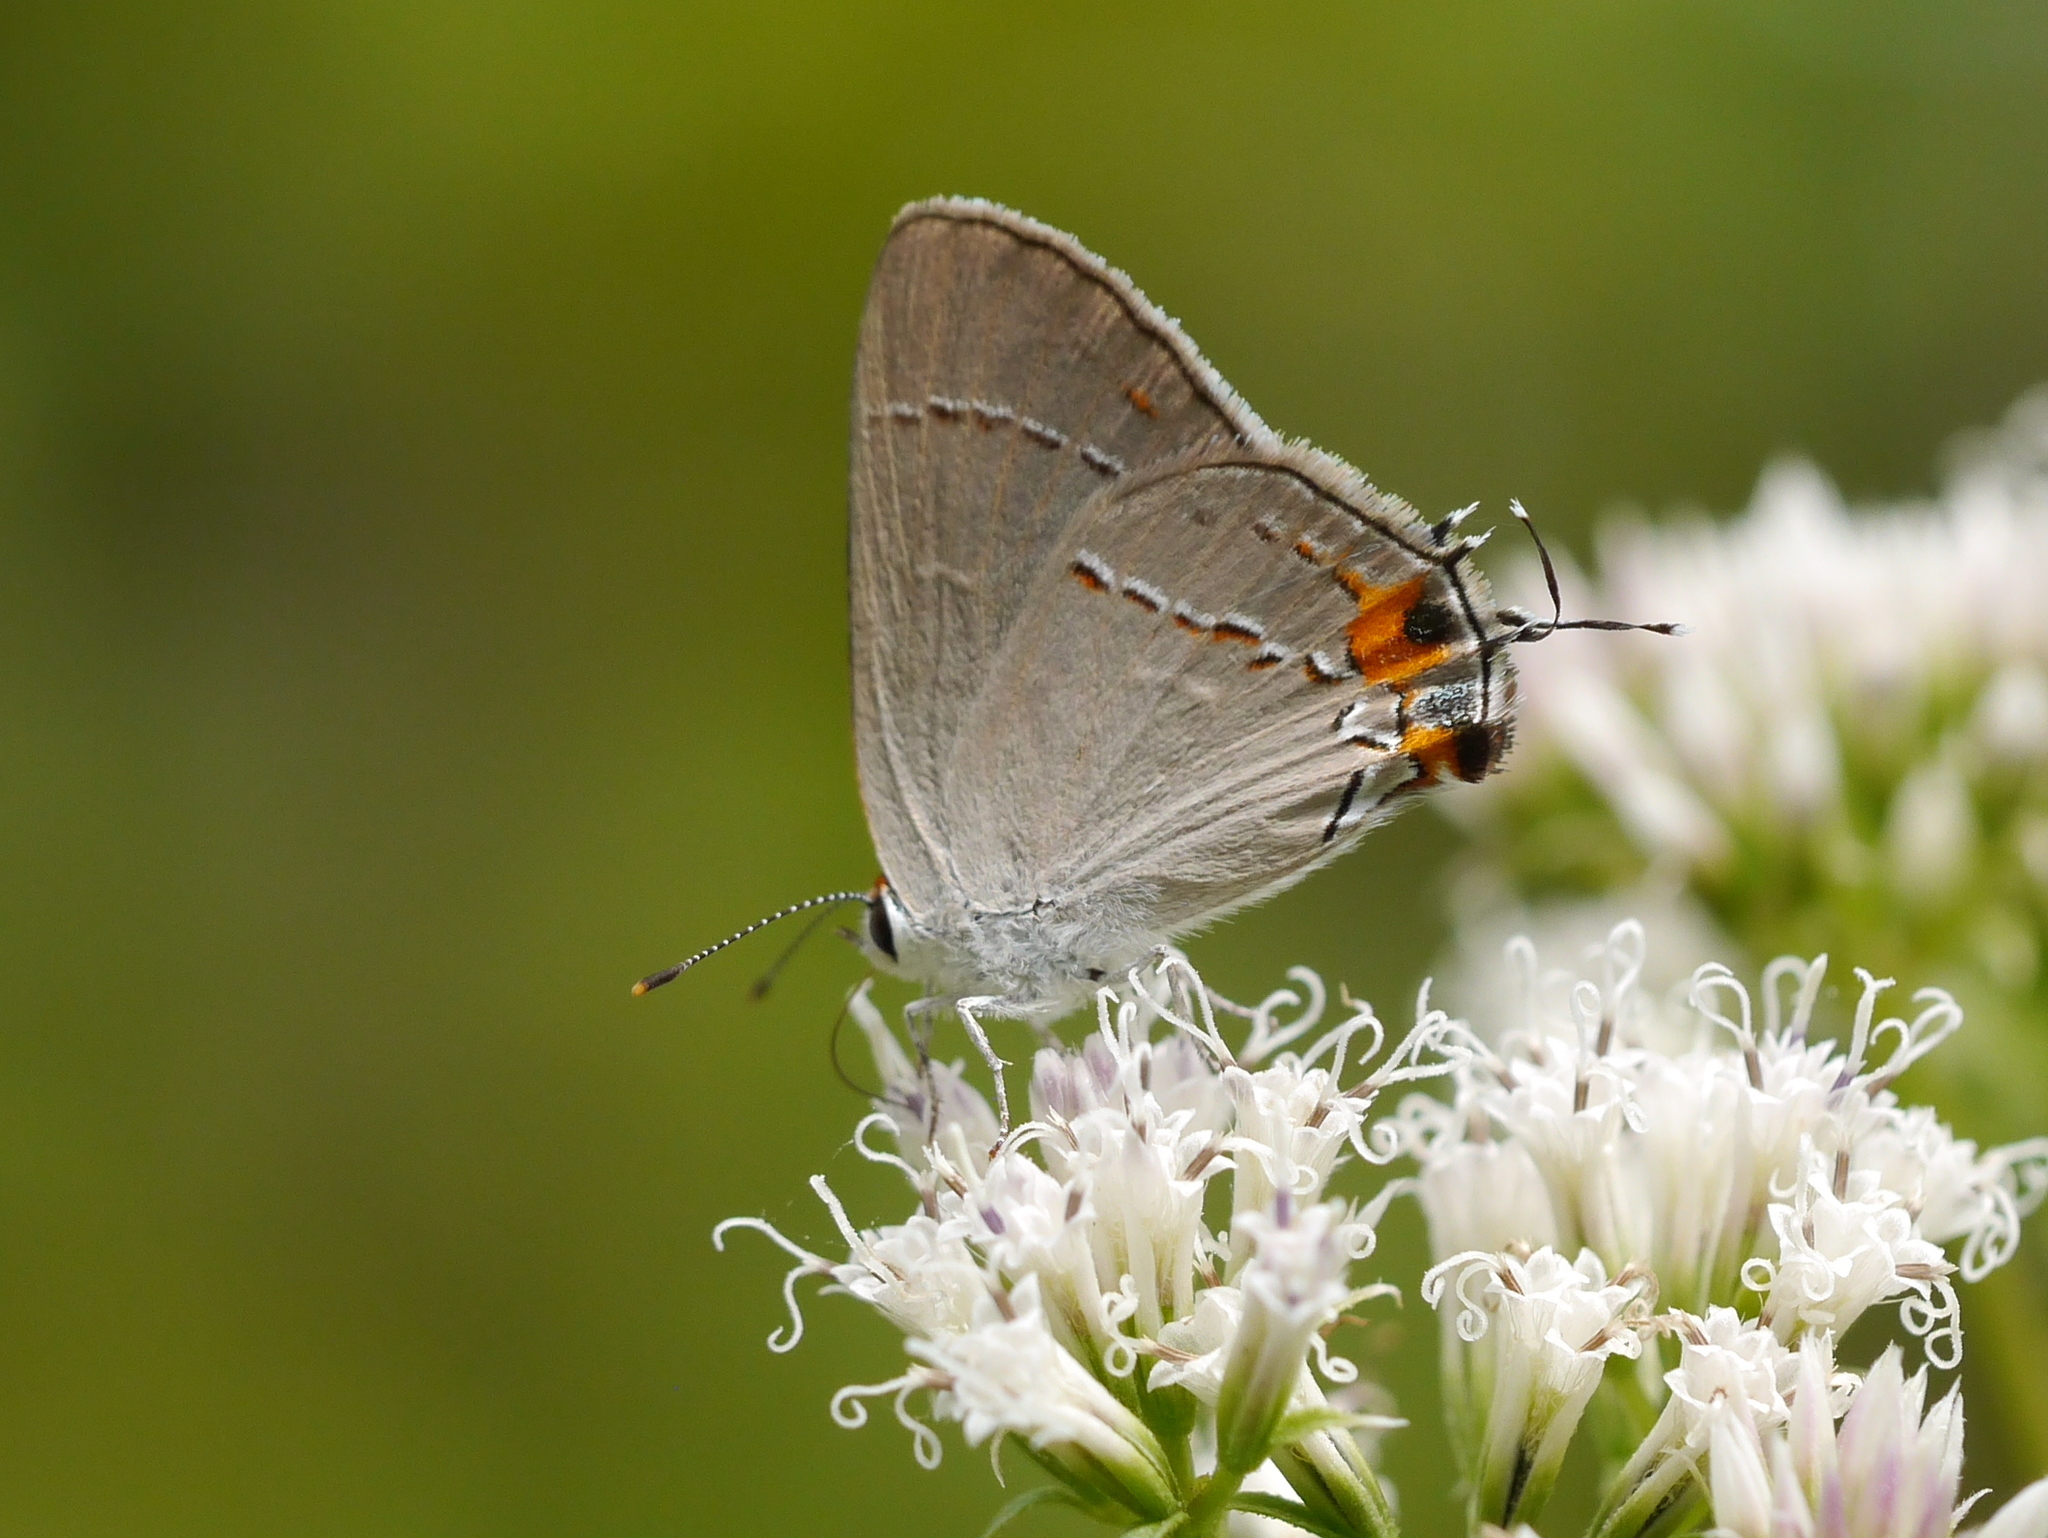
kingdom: Animalia
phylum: Arthropoda
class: Insecta
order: Lepidoptera
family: Lycaenidae
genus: Strymon
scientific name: Strymon melinus
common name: Gray hairstreak
